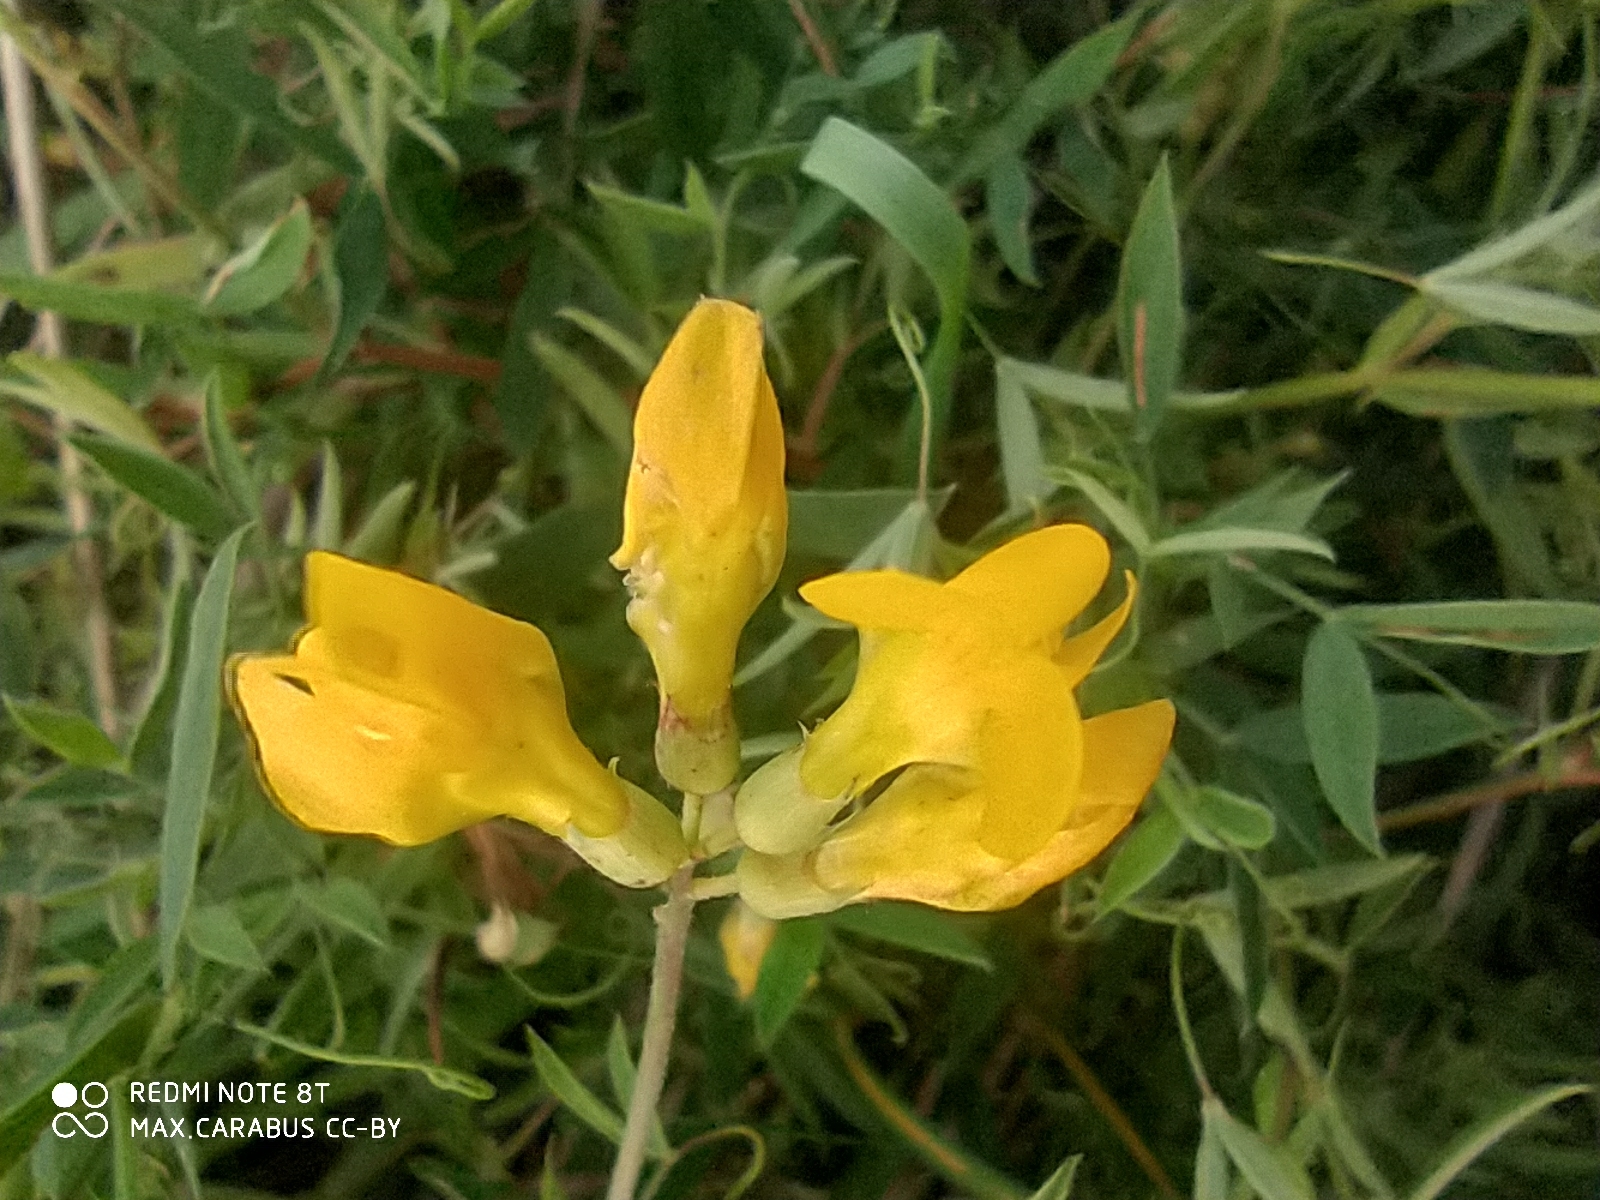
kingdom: Plantae
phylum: Tracheophyta
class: Magnoliopsida
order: Fabales
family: Fabaceae
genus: Lathyrus
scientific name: Lathyrus pratensis
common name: Meadow vetchling
